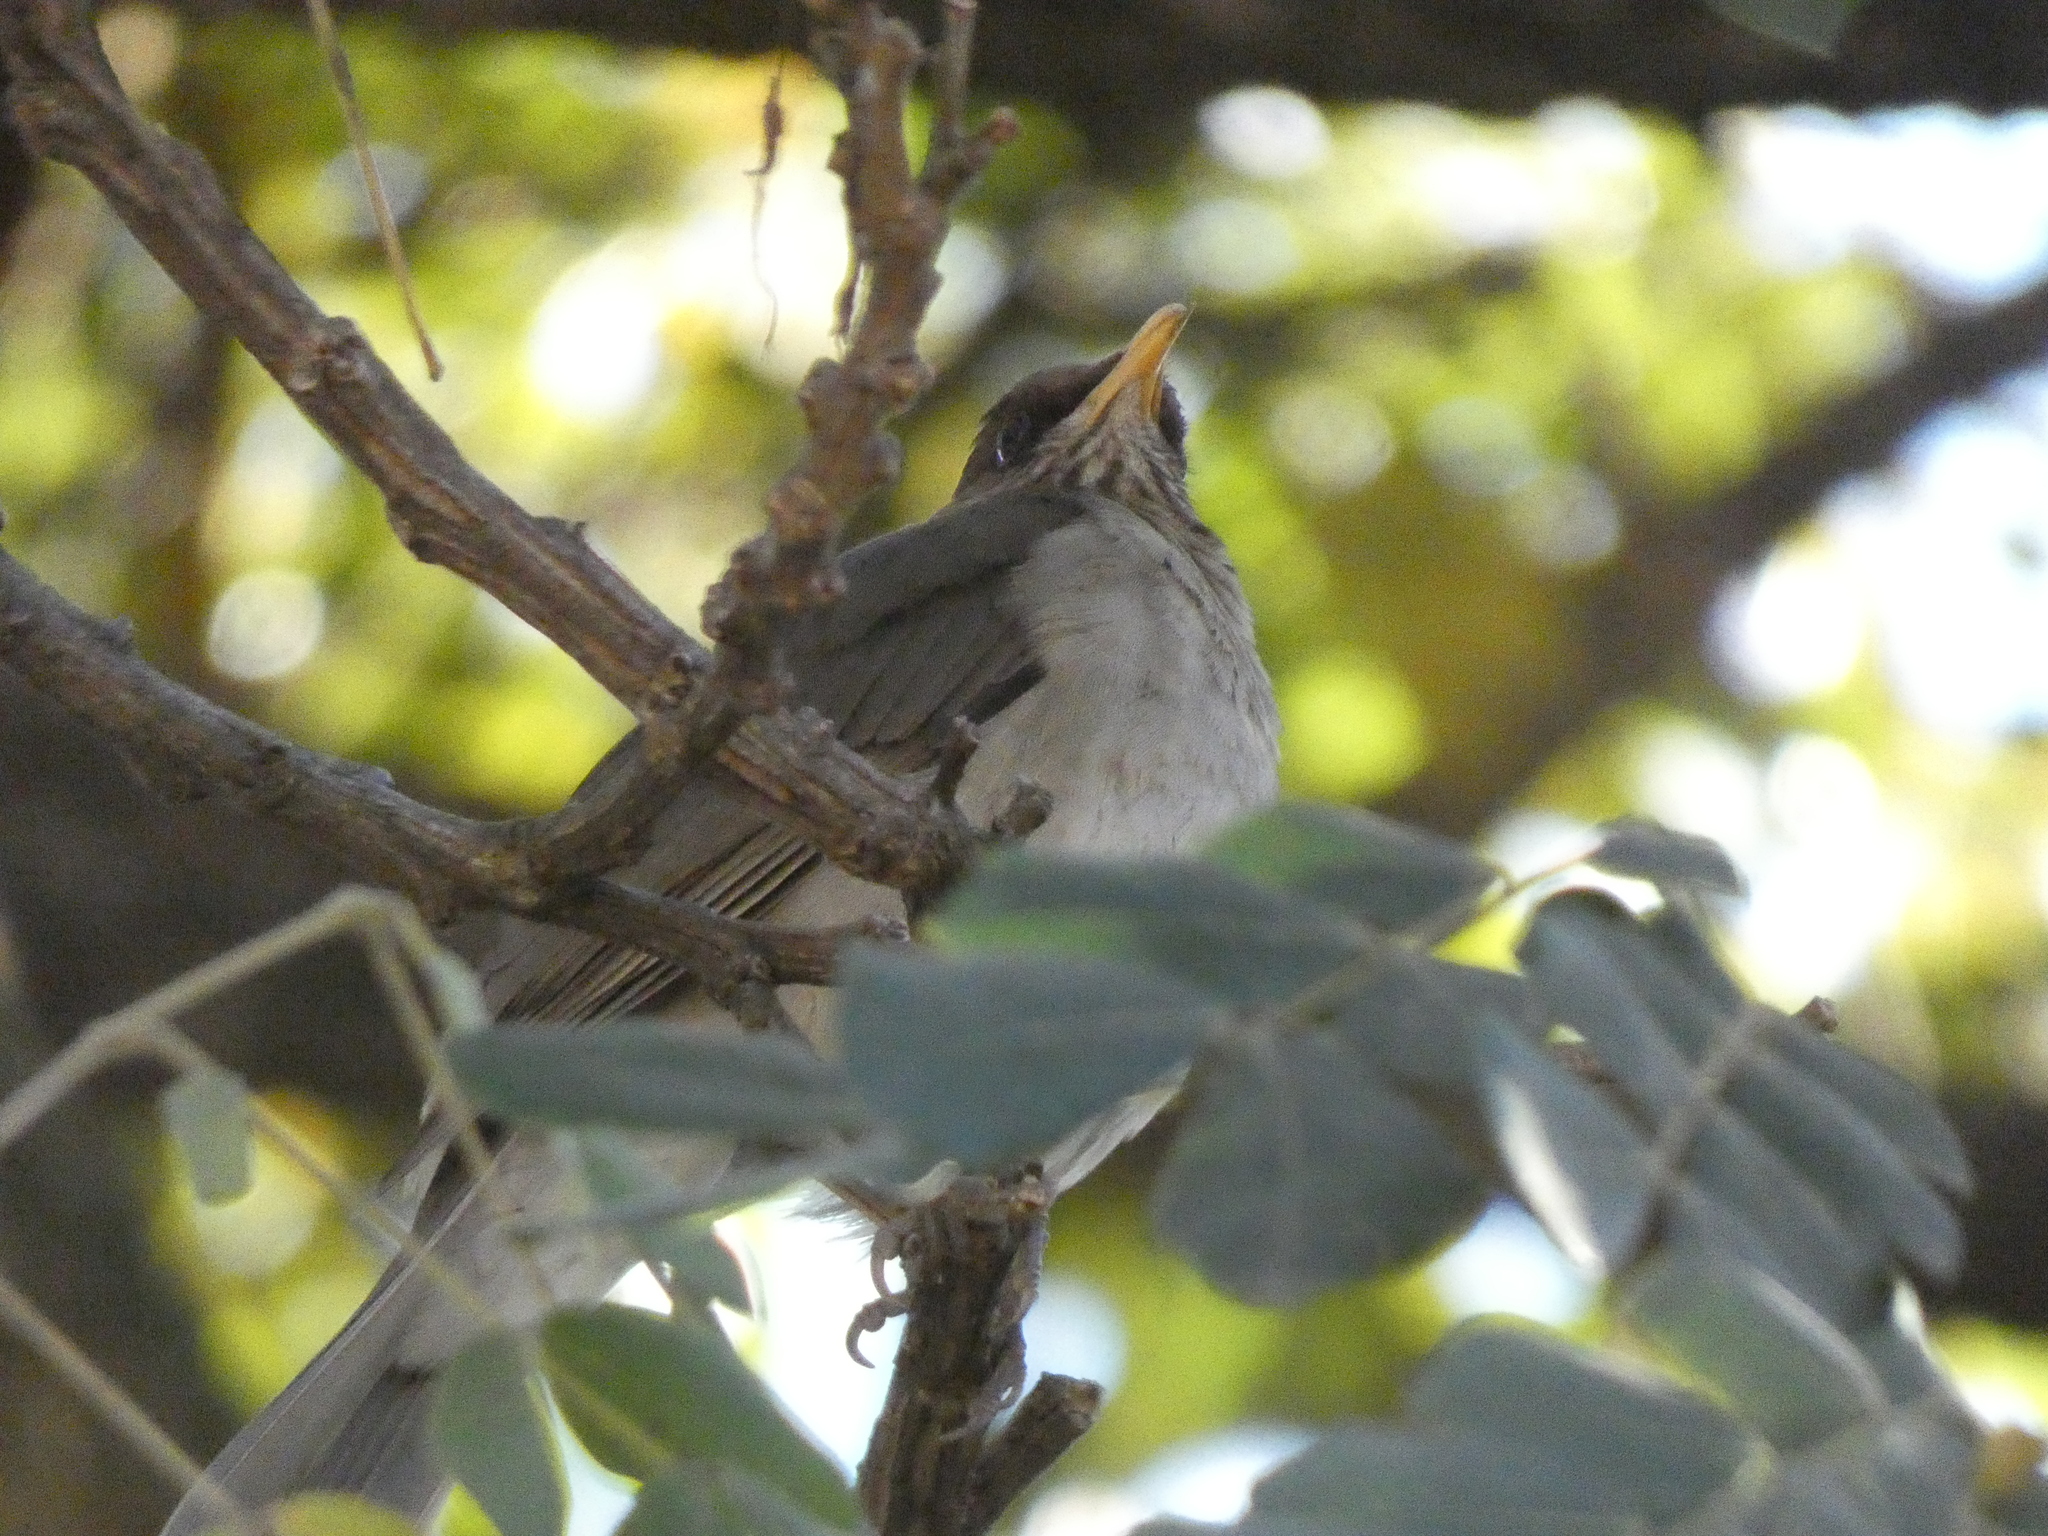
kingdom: Animalia
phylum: Chordata
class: Aves
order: Passeriformes
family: Turdidae
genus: Turdus
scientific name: Turdus amaurochalinus
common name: Creamy-bellied thrush
